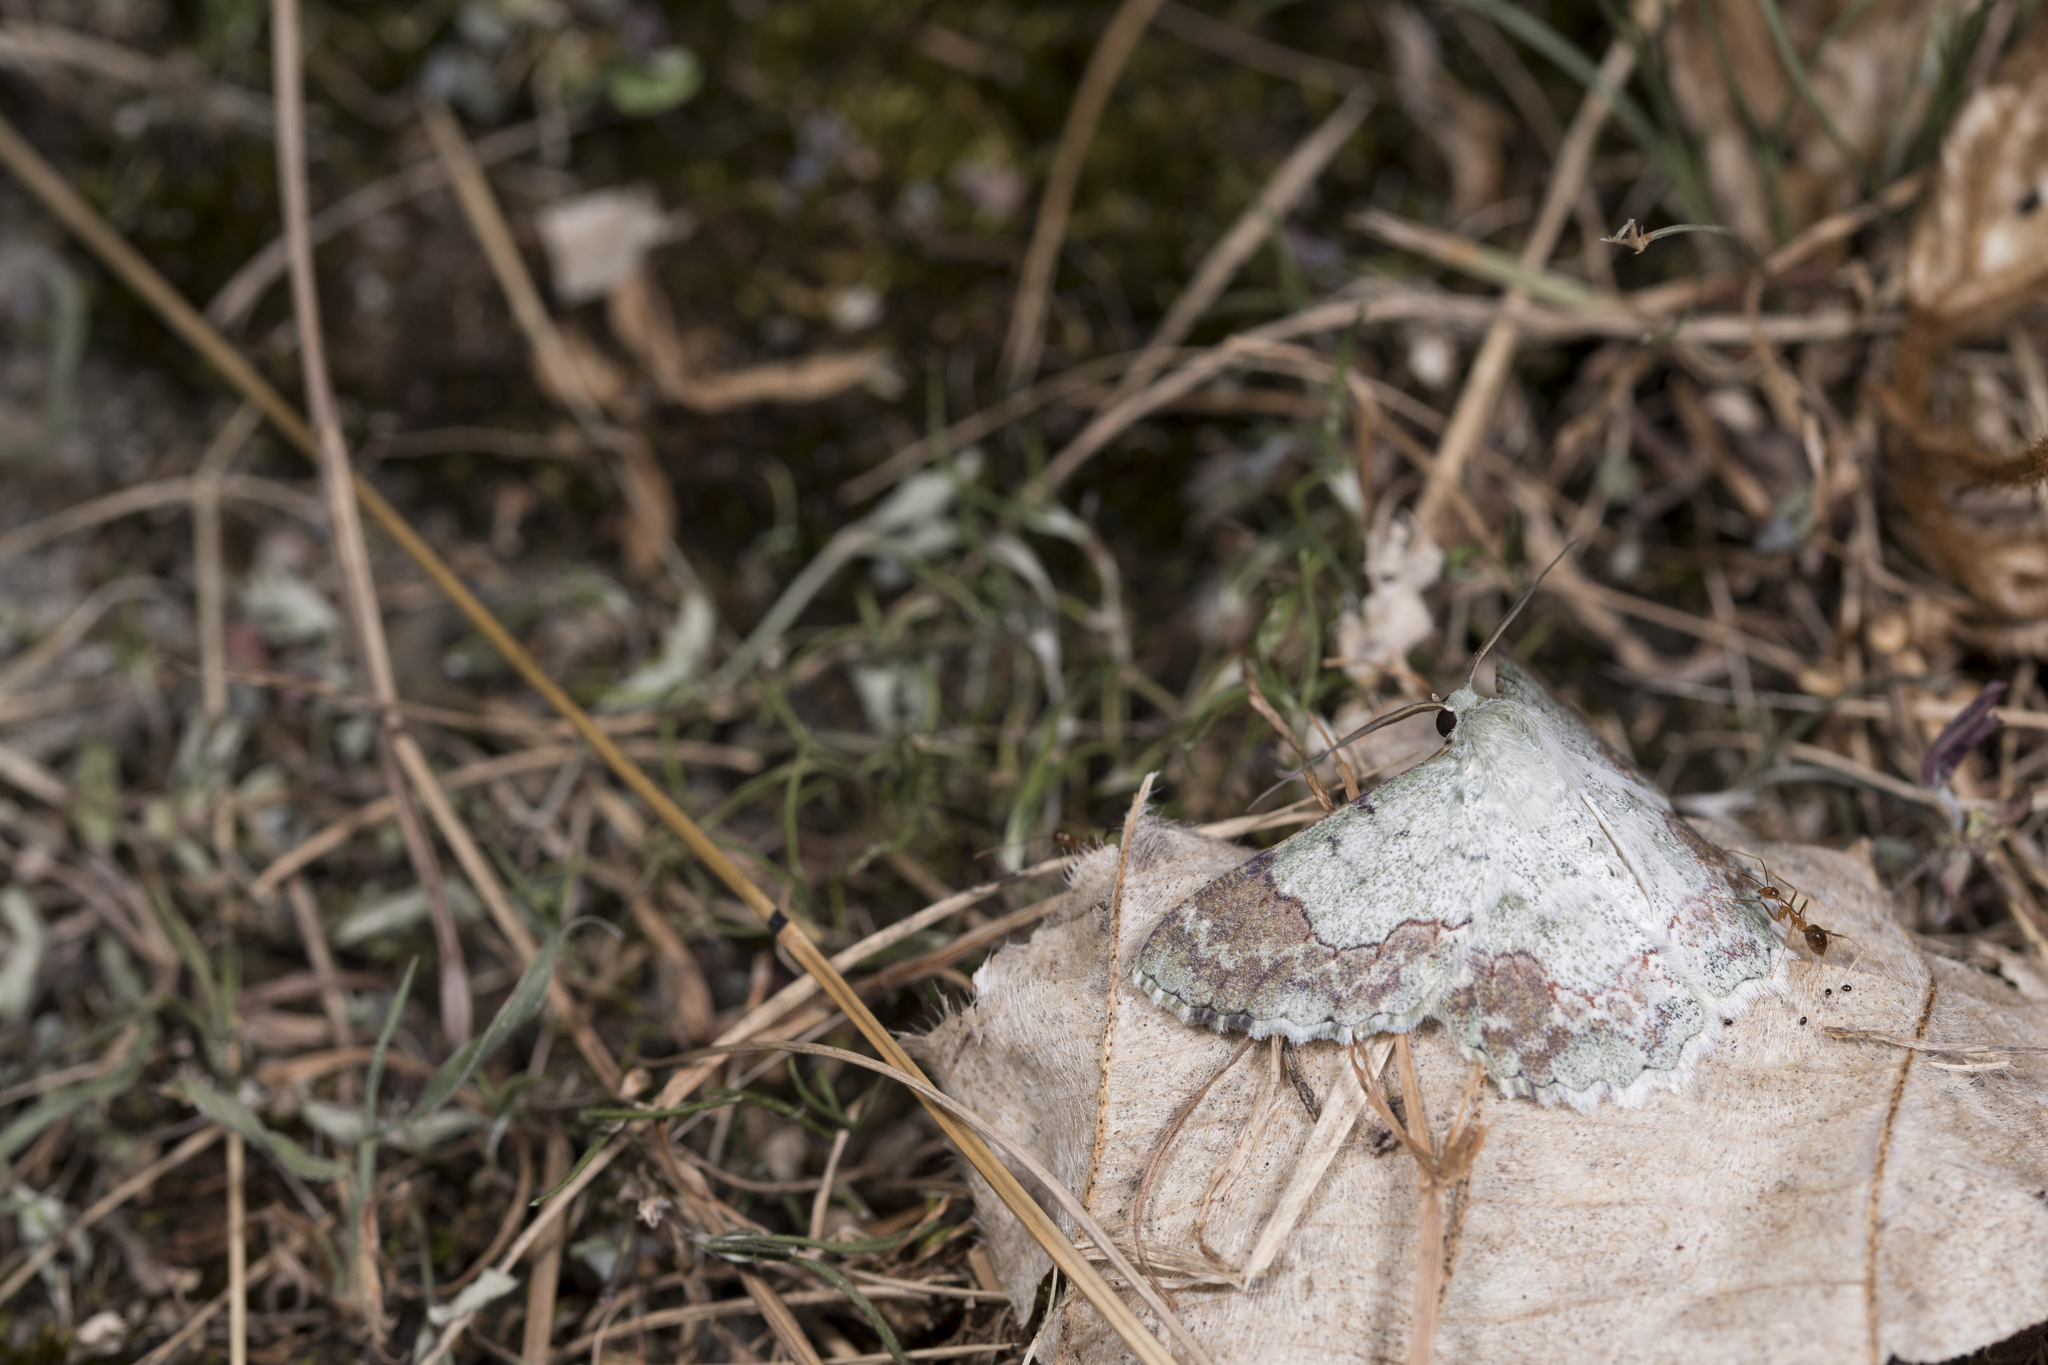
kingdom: Animalia
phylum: Arthropoda
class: Insecta
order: Lepidoptera
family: Geometridae
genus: Pingasa
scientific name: Pingasa ruginaria
